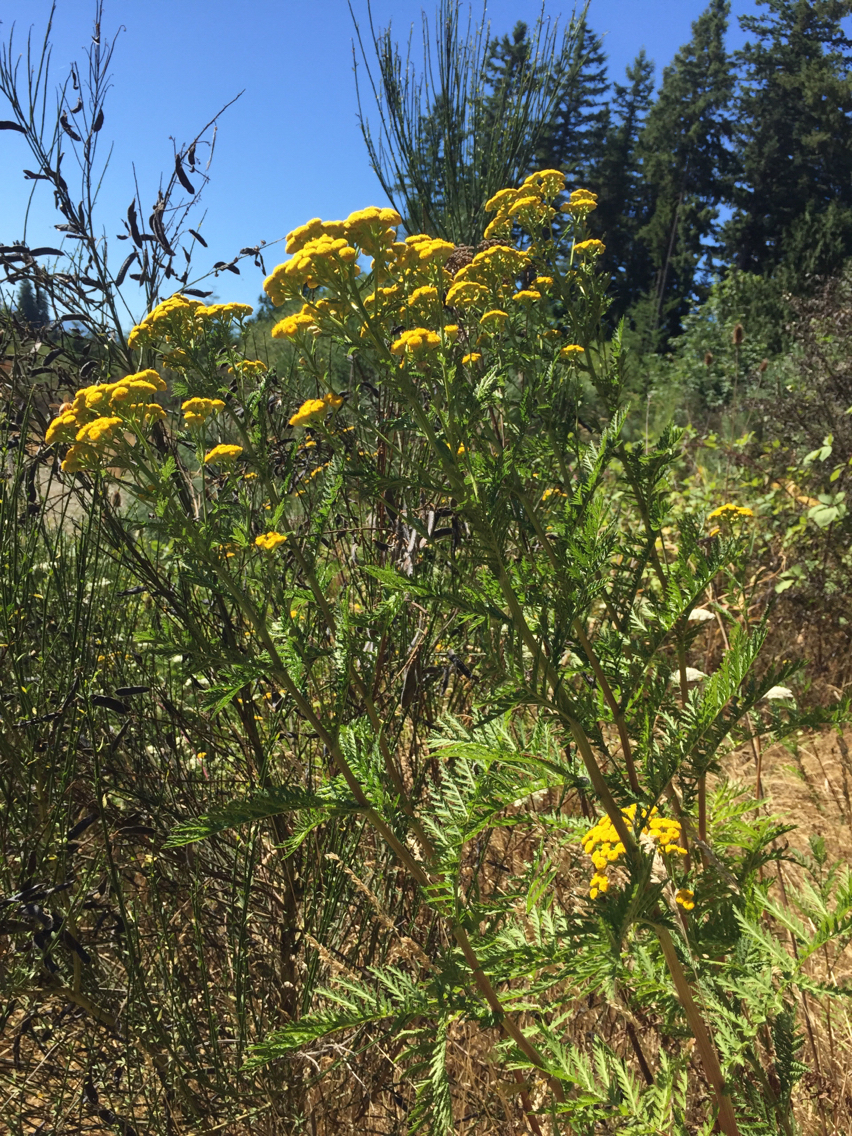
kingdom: Plantae
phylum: Tracheophyta
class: Magnoliopsida
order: Asterales
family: Asteraceae
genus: Tanacetum
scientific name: Tanacetum vulgare
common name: Common tansy
